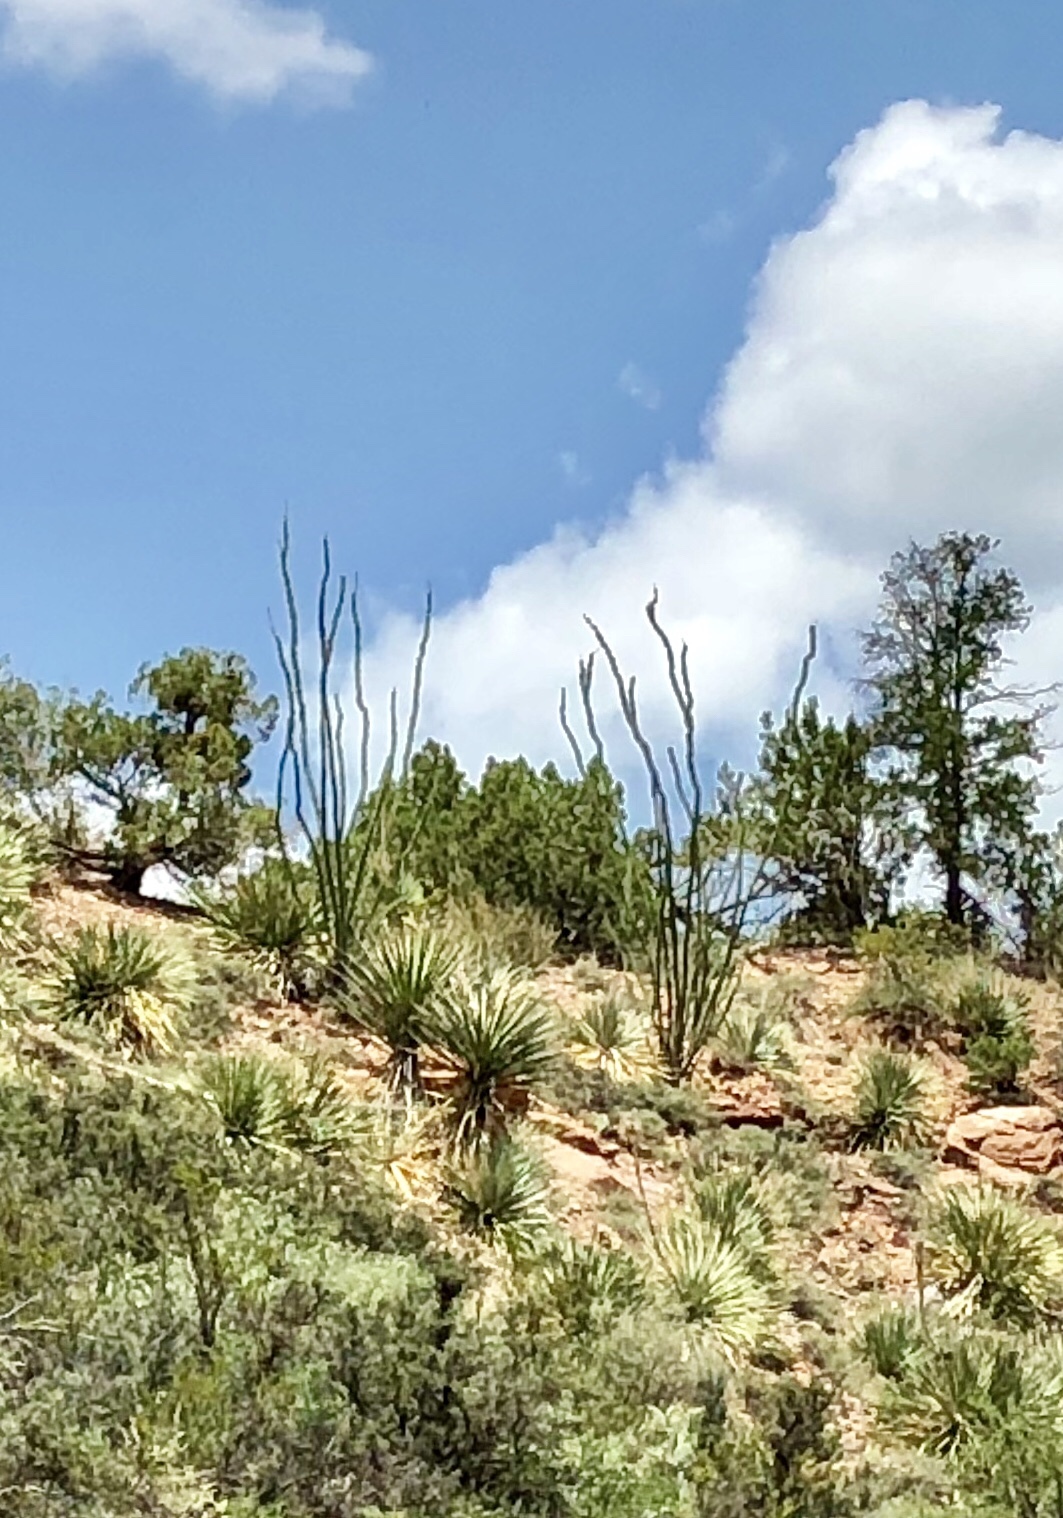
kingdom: Plantae
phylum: Tracheophyta
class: Magnoliopsida
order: Ericales
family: Fouquieriaceae
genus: Fouquieria
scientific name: Fouquieria splendens
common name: Vine-cactus
